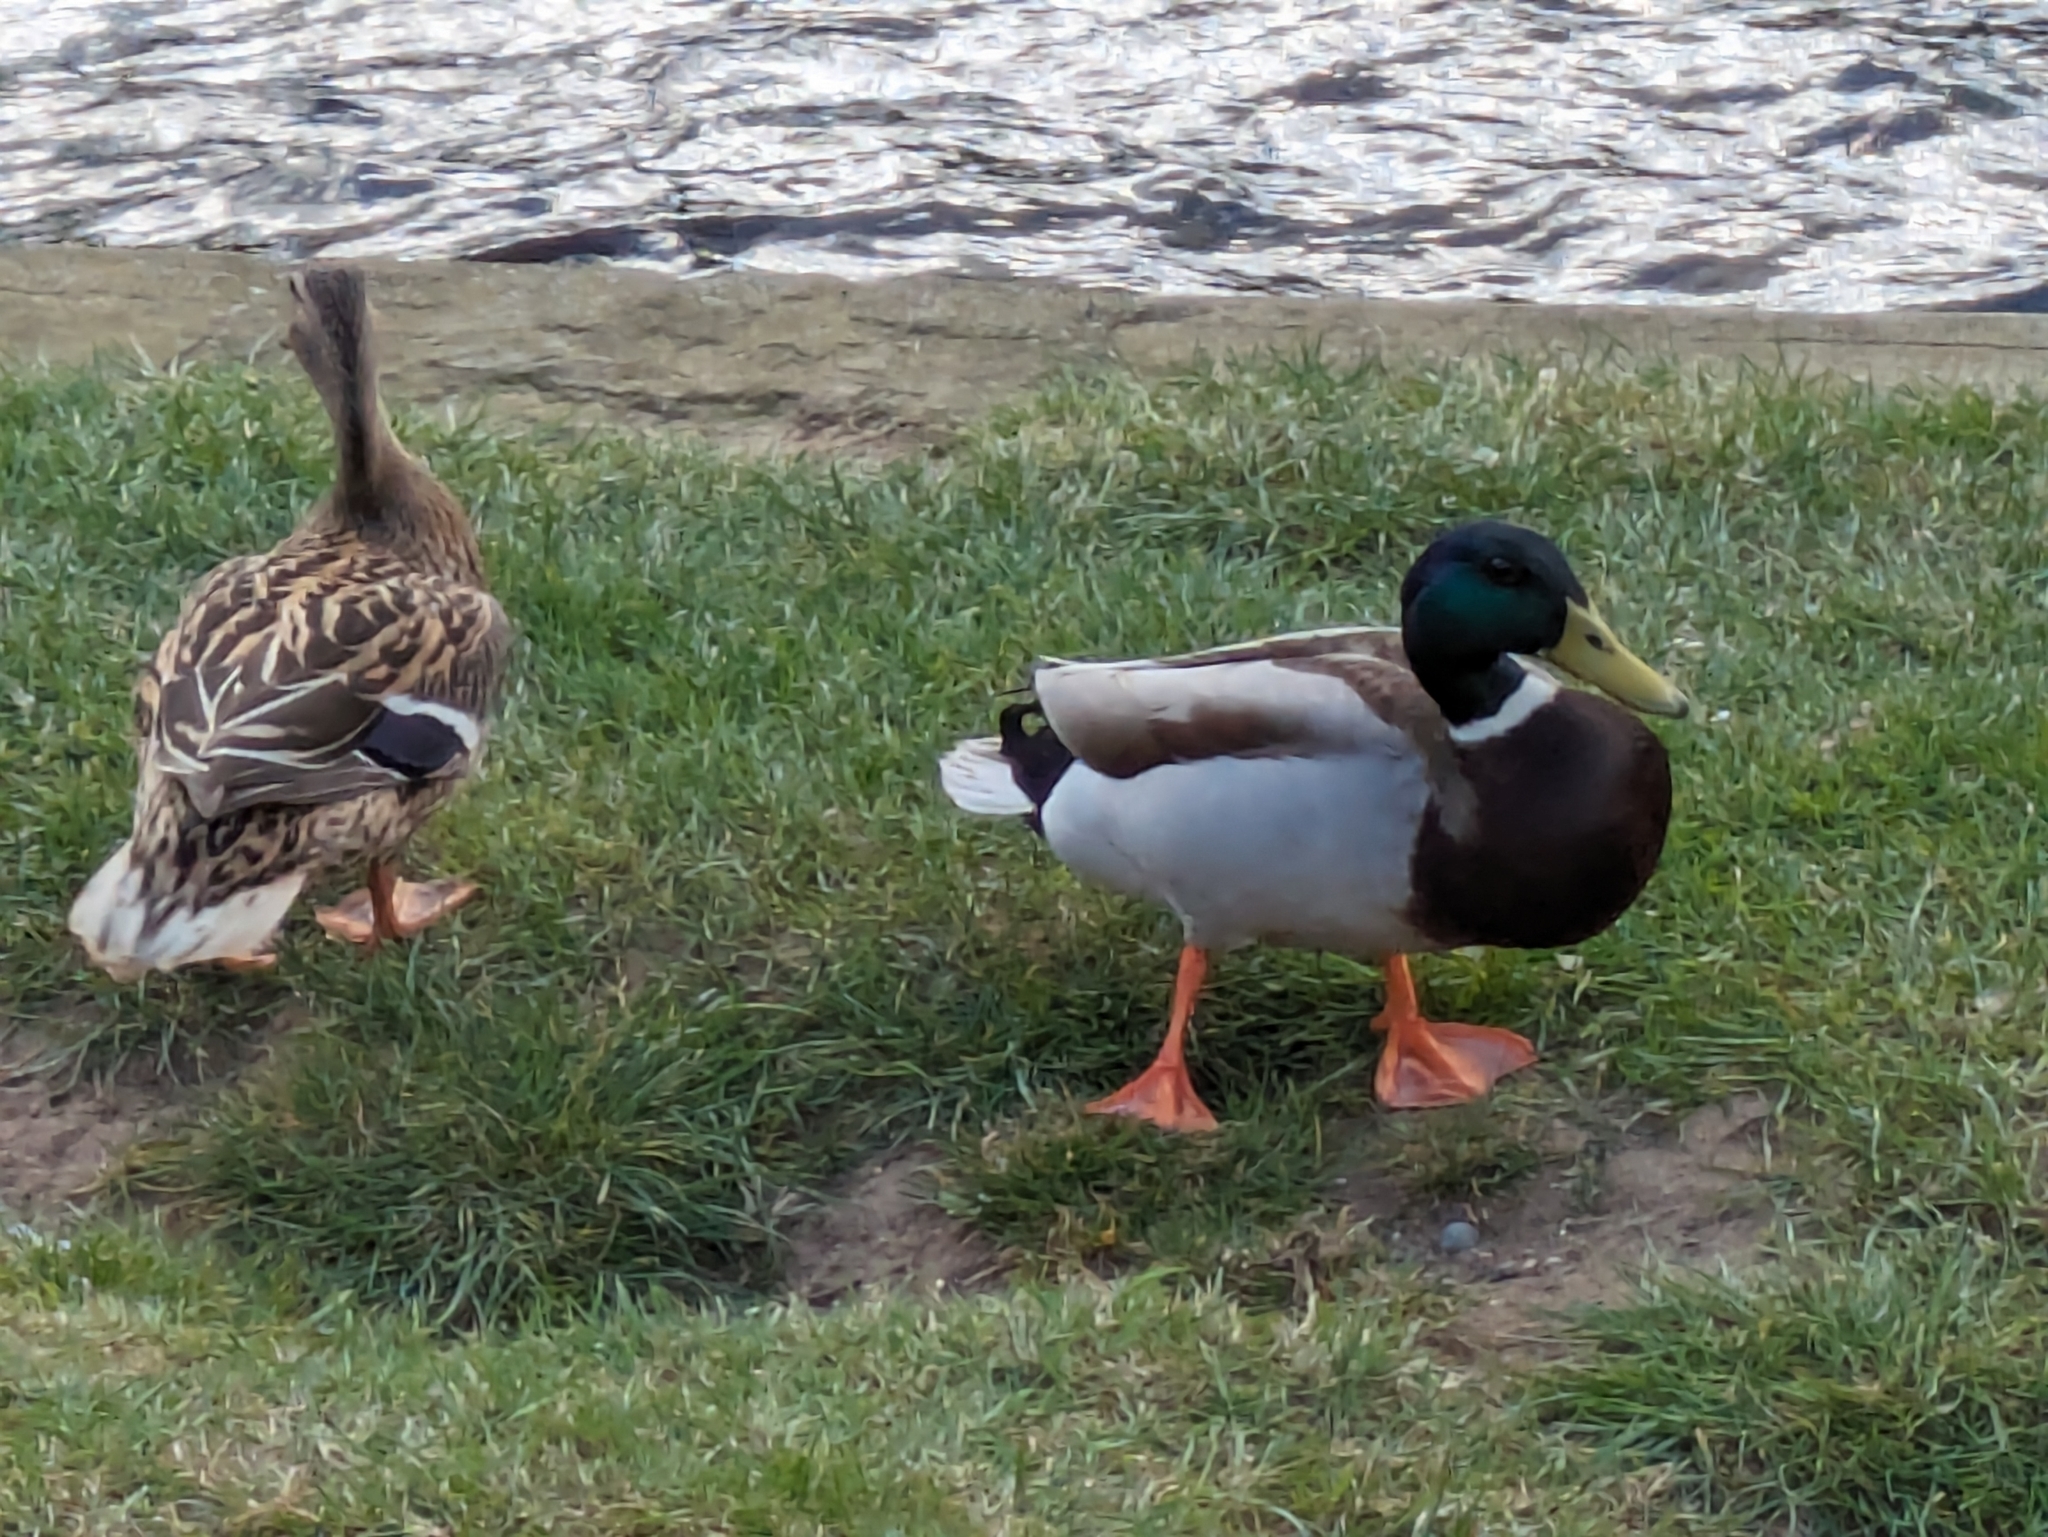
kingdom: Animalia
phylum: Chordata
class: Aves
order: Anseriformes
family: Anatidae
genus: Anas
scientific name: Anas platyrhynchos
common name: Mallard
